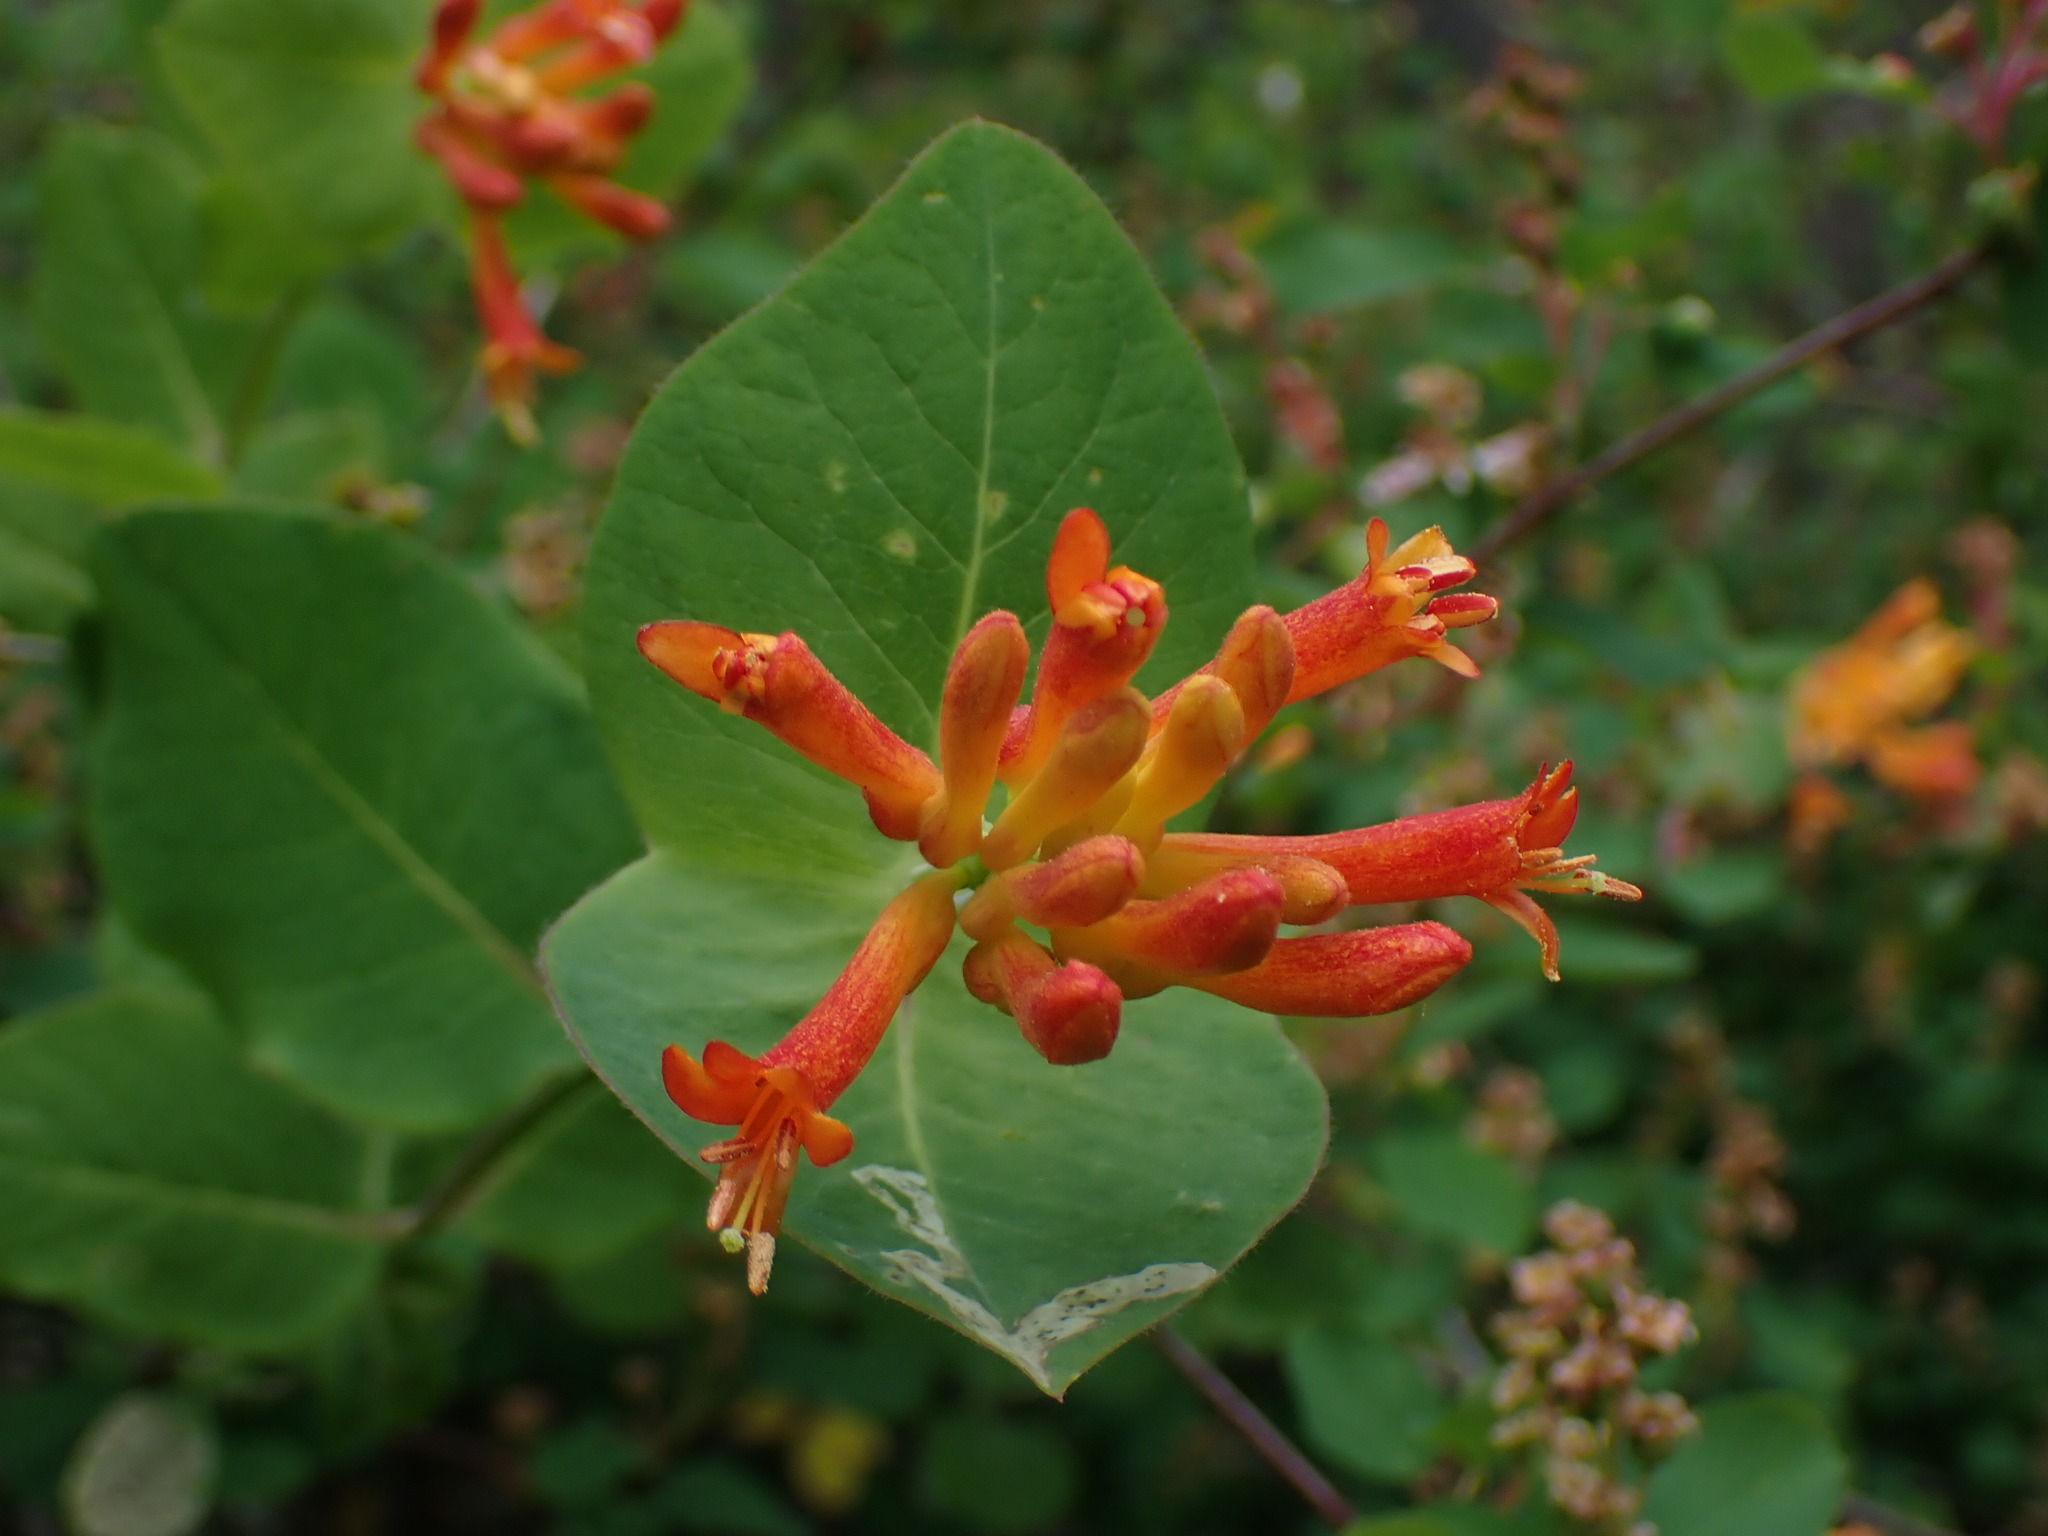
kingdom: Plantae
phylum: Tracheophyta
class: Magnoliopsida
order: Dipsacales
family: Caprifoliaceae
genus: Lonicera
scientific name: Lonicera ciliosa
